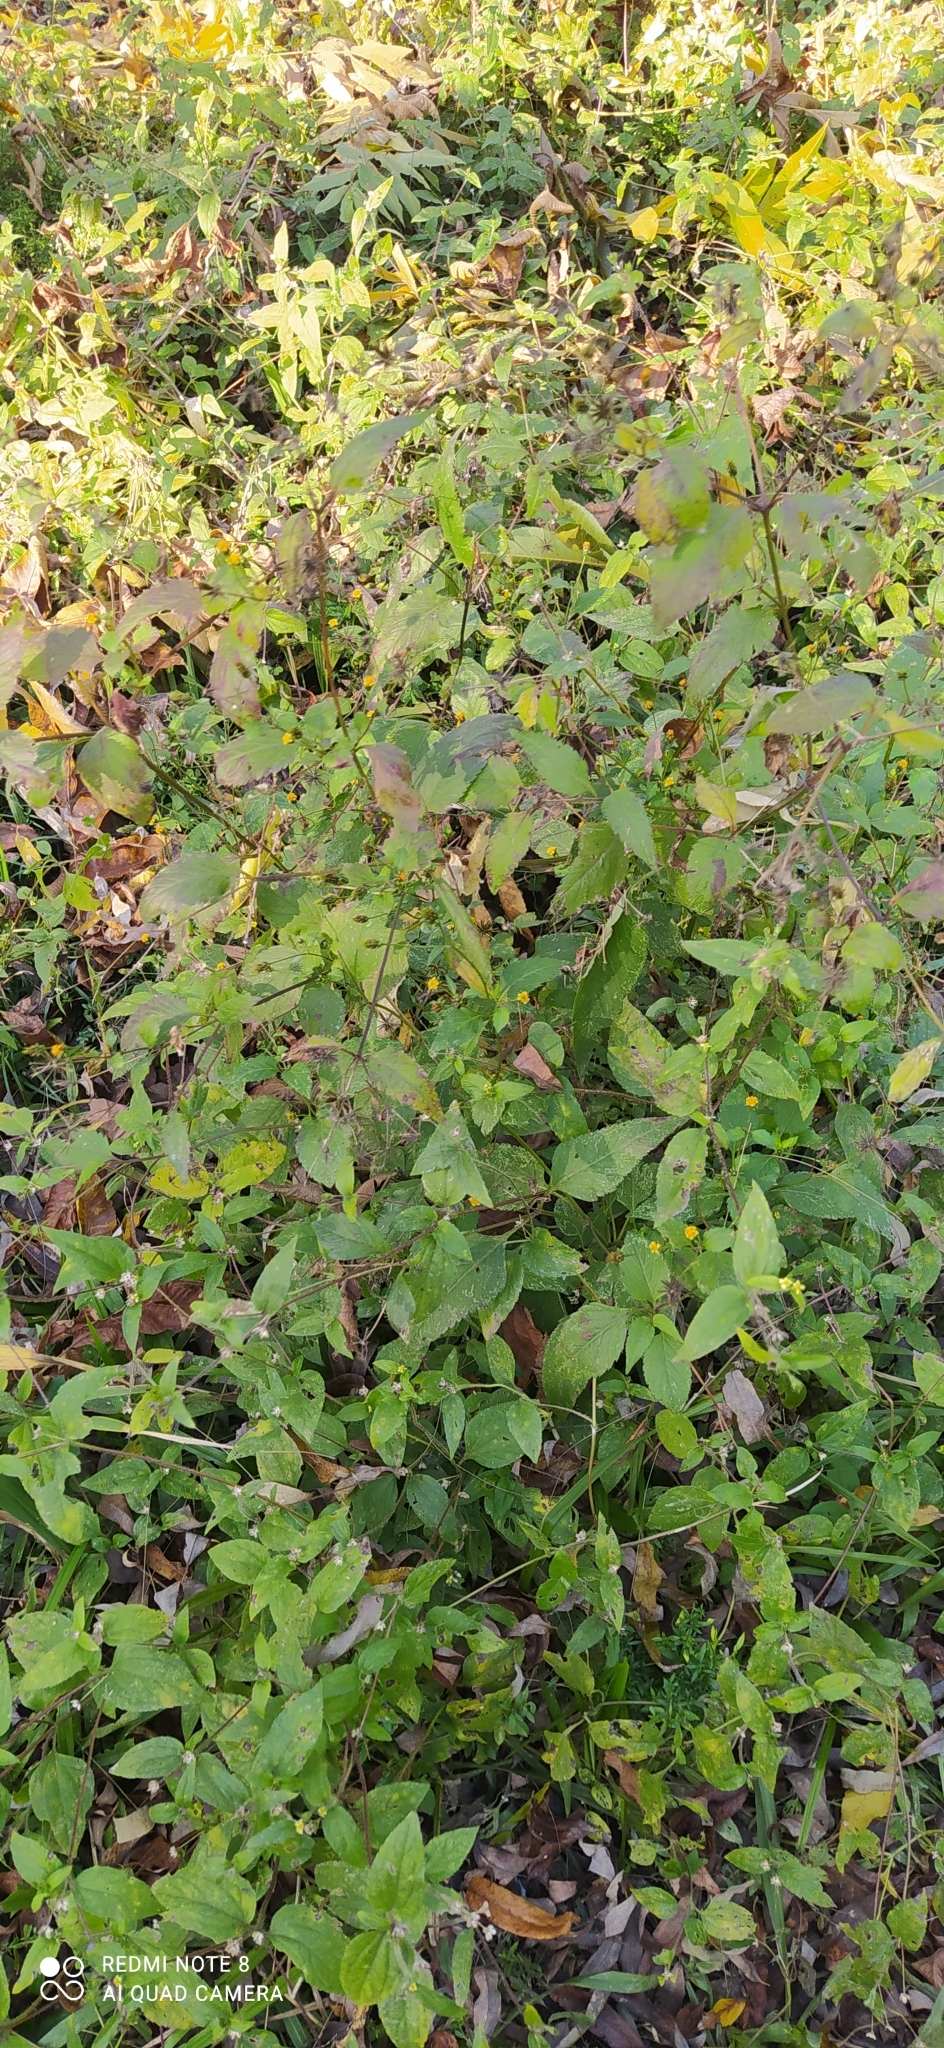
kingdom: Plantae
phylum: Tracheophyta
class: Magnoliopsida
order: Asterales
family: Asteraceae
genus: Bidens
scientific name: Bidens pilosa
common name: Black-jack
